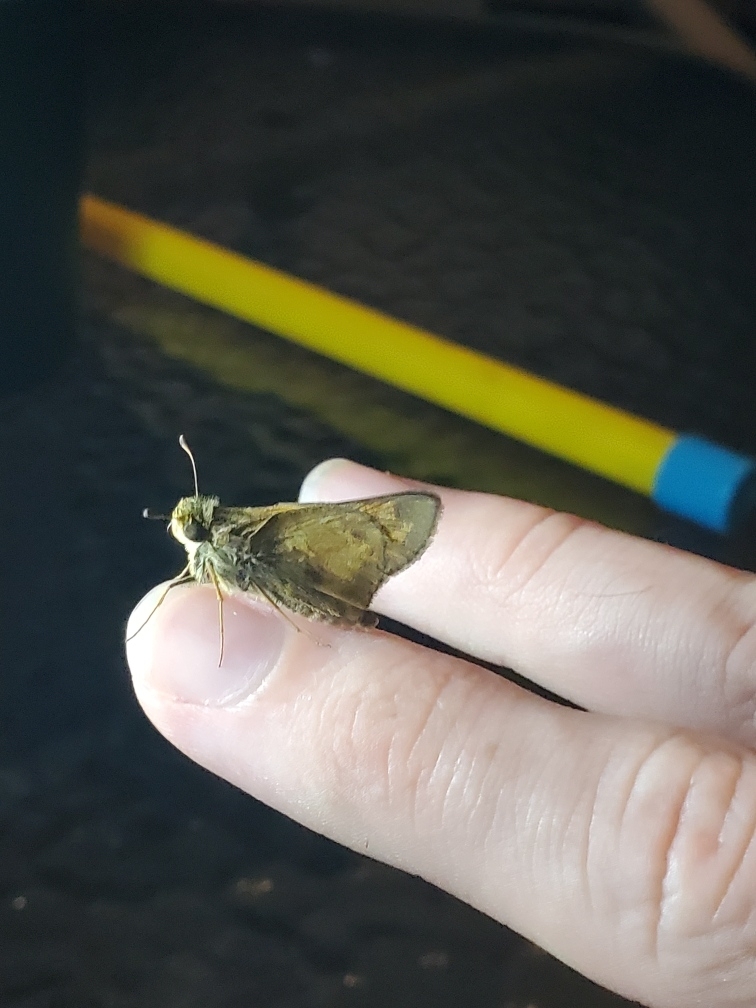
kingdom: Animalia
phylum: Arthropoda
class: Insecta
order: Lepidoptera
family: Hesperiidae
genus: Atalopedes
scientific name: Atalopedes
